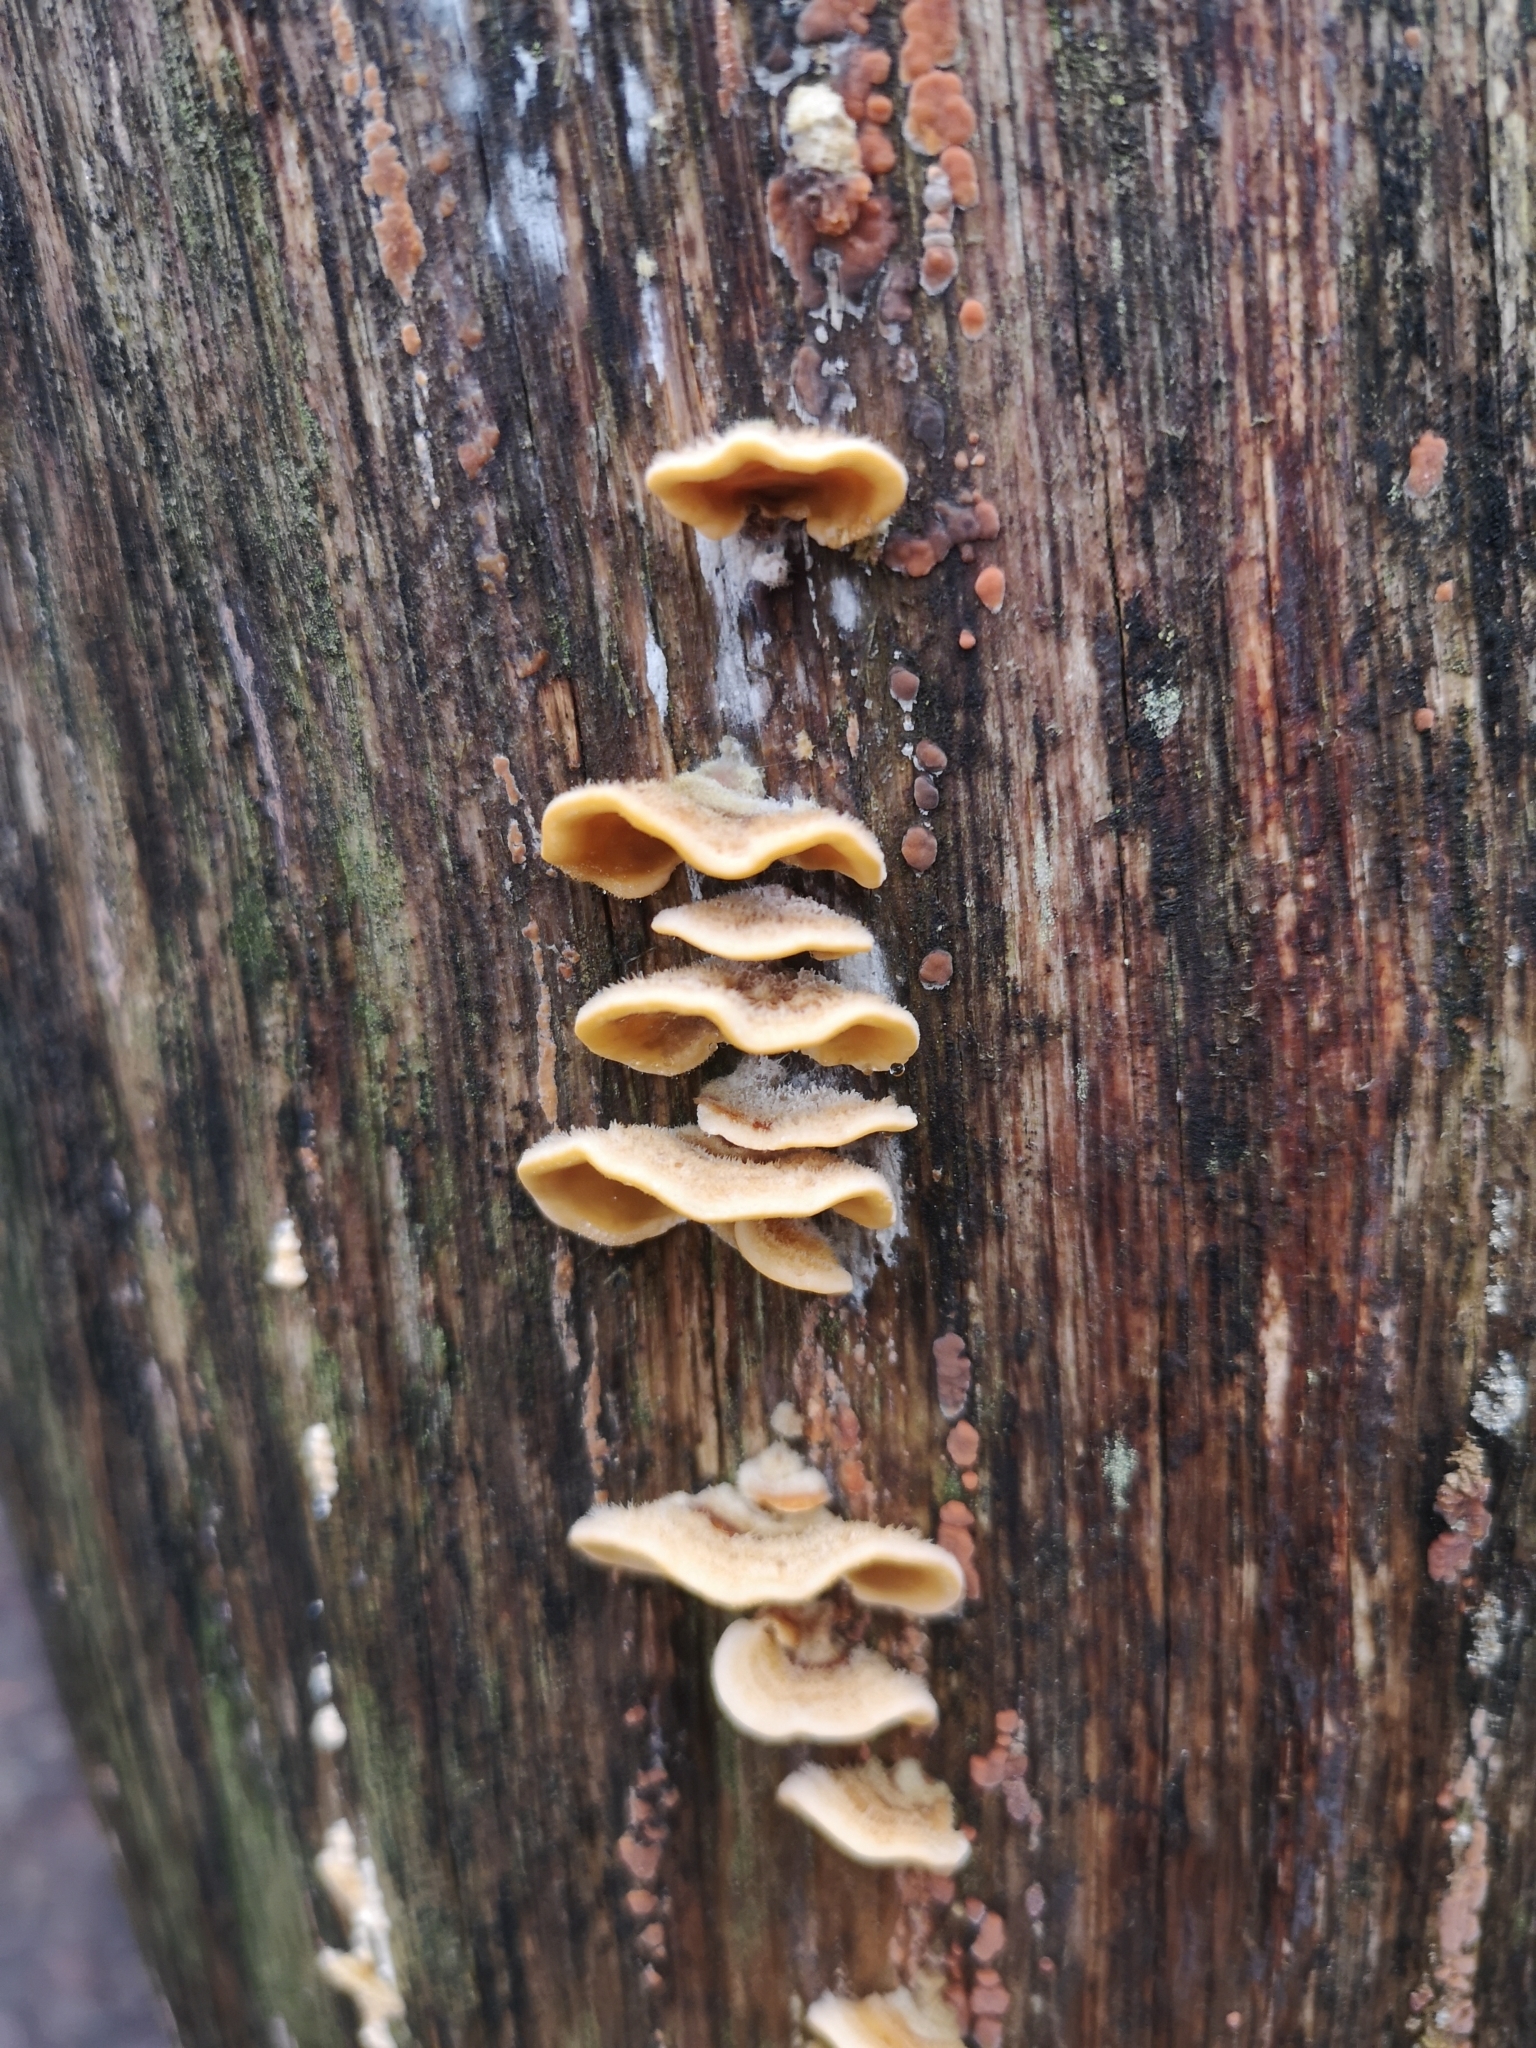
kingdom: Fungi
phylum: Basidiomycota
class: Agaricomycetes
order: Russulales
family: Stereaceae
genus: Stereum
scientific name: Stereum hirsutum
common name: Hairy curtain crust
